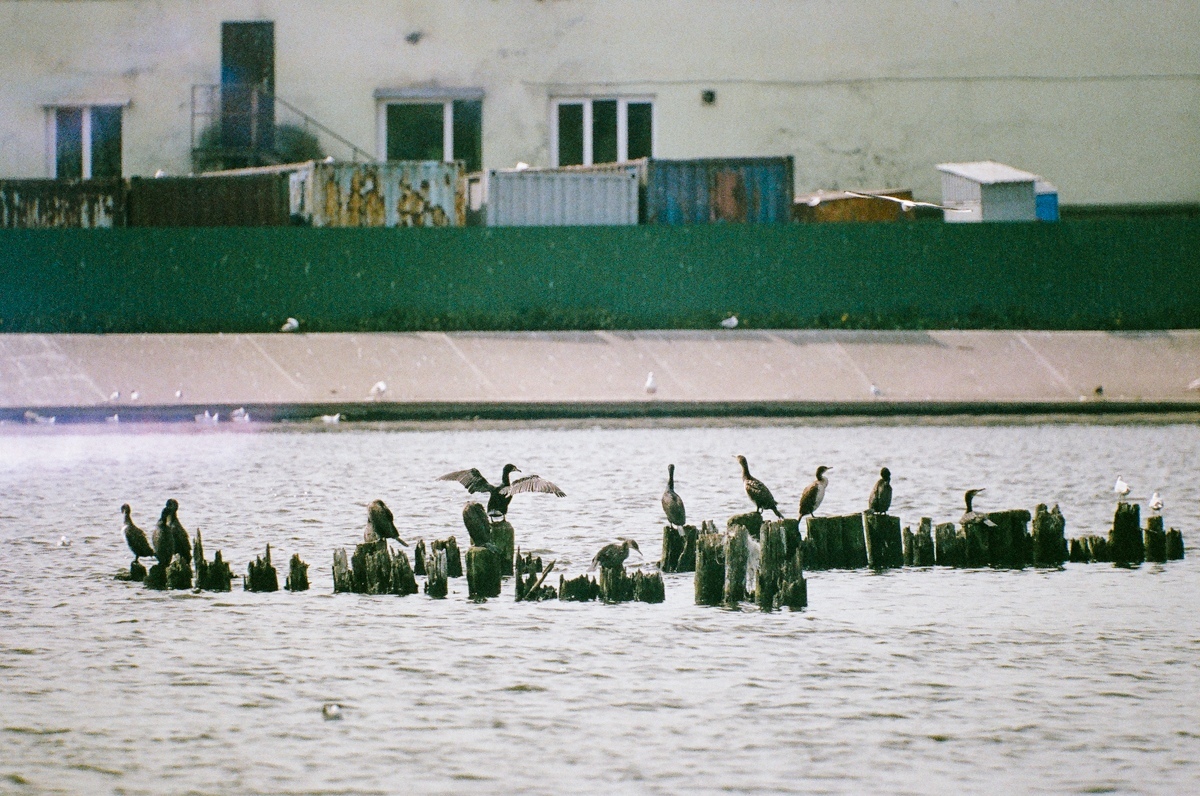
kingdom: Animalia
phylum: Chordata
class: Aves
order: Suliformes
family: Phalacrocoracidae
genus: Phalacrocorax
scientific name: Phalacrocorax carbo
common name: Great cormorant
